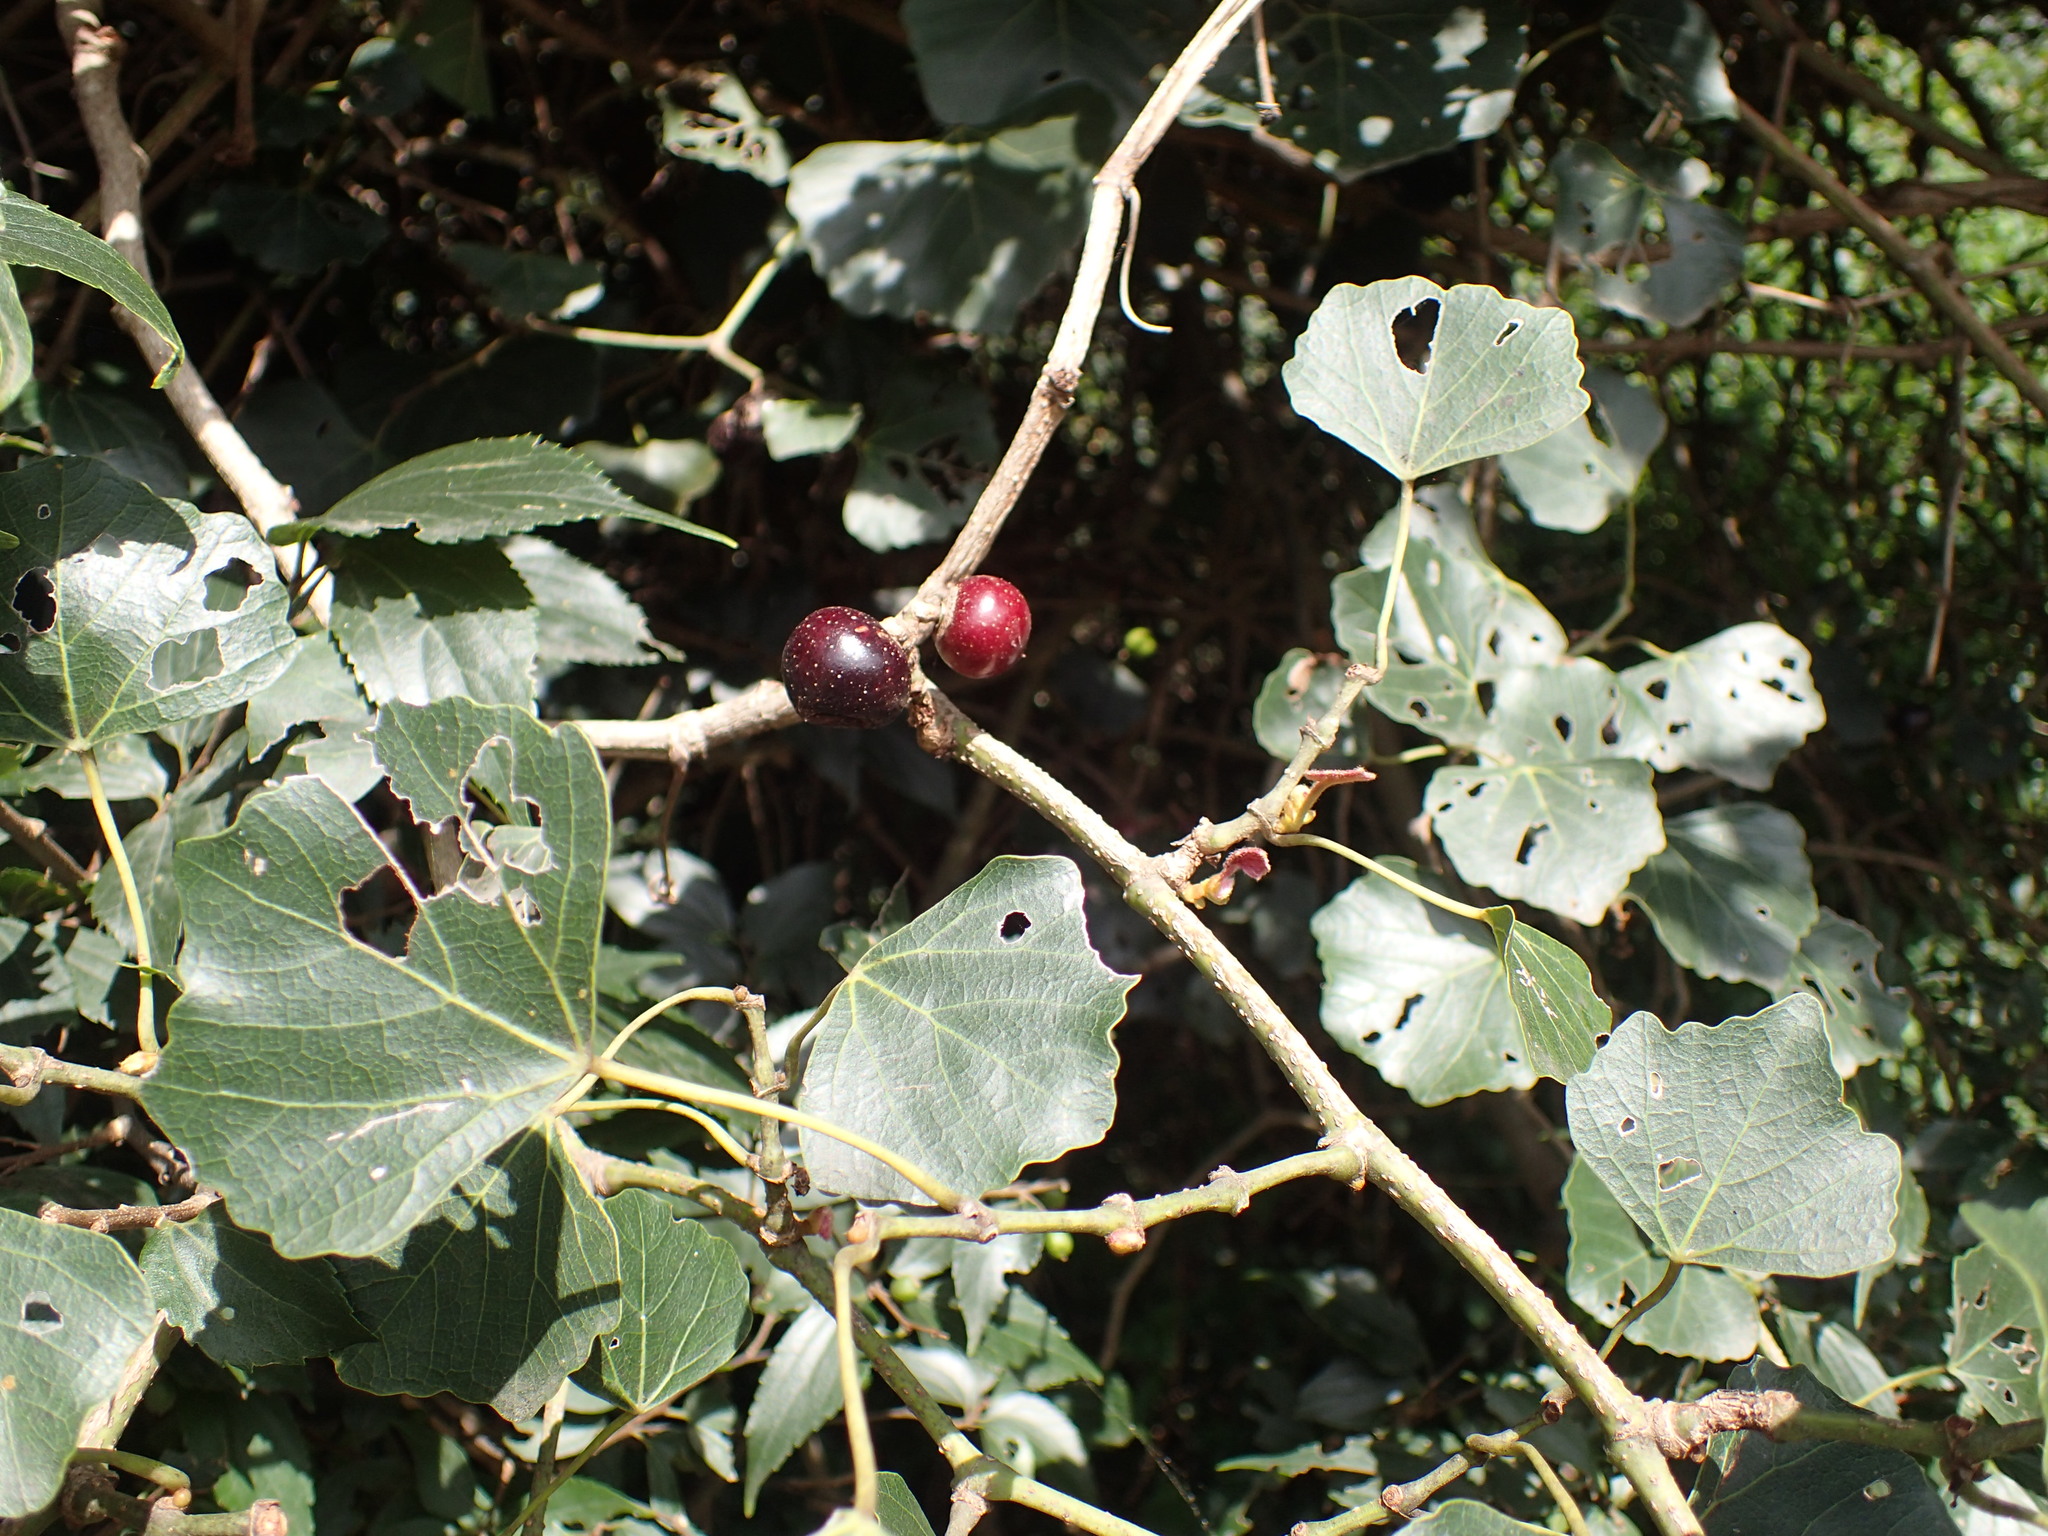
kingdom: Plantae
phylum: Tracheophyta
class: Magnoliopsida
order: Vitales
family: Vitaceae
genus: Rhoicissus
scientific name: Rhoicissus tomentosa
